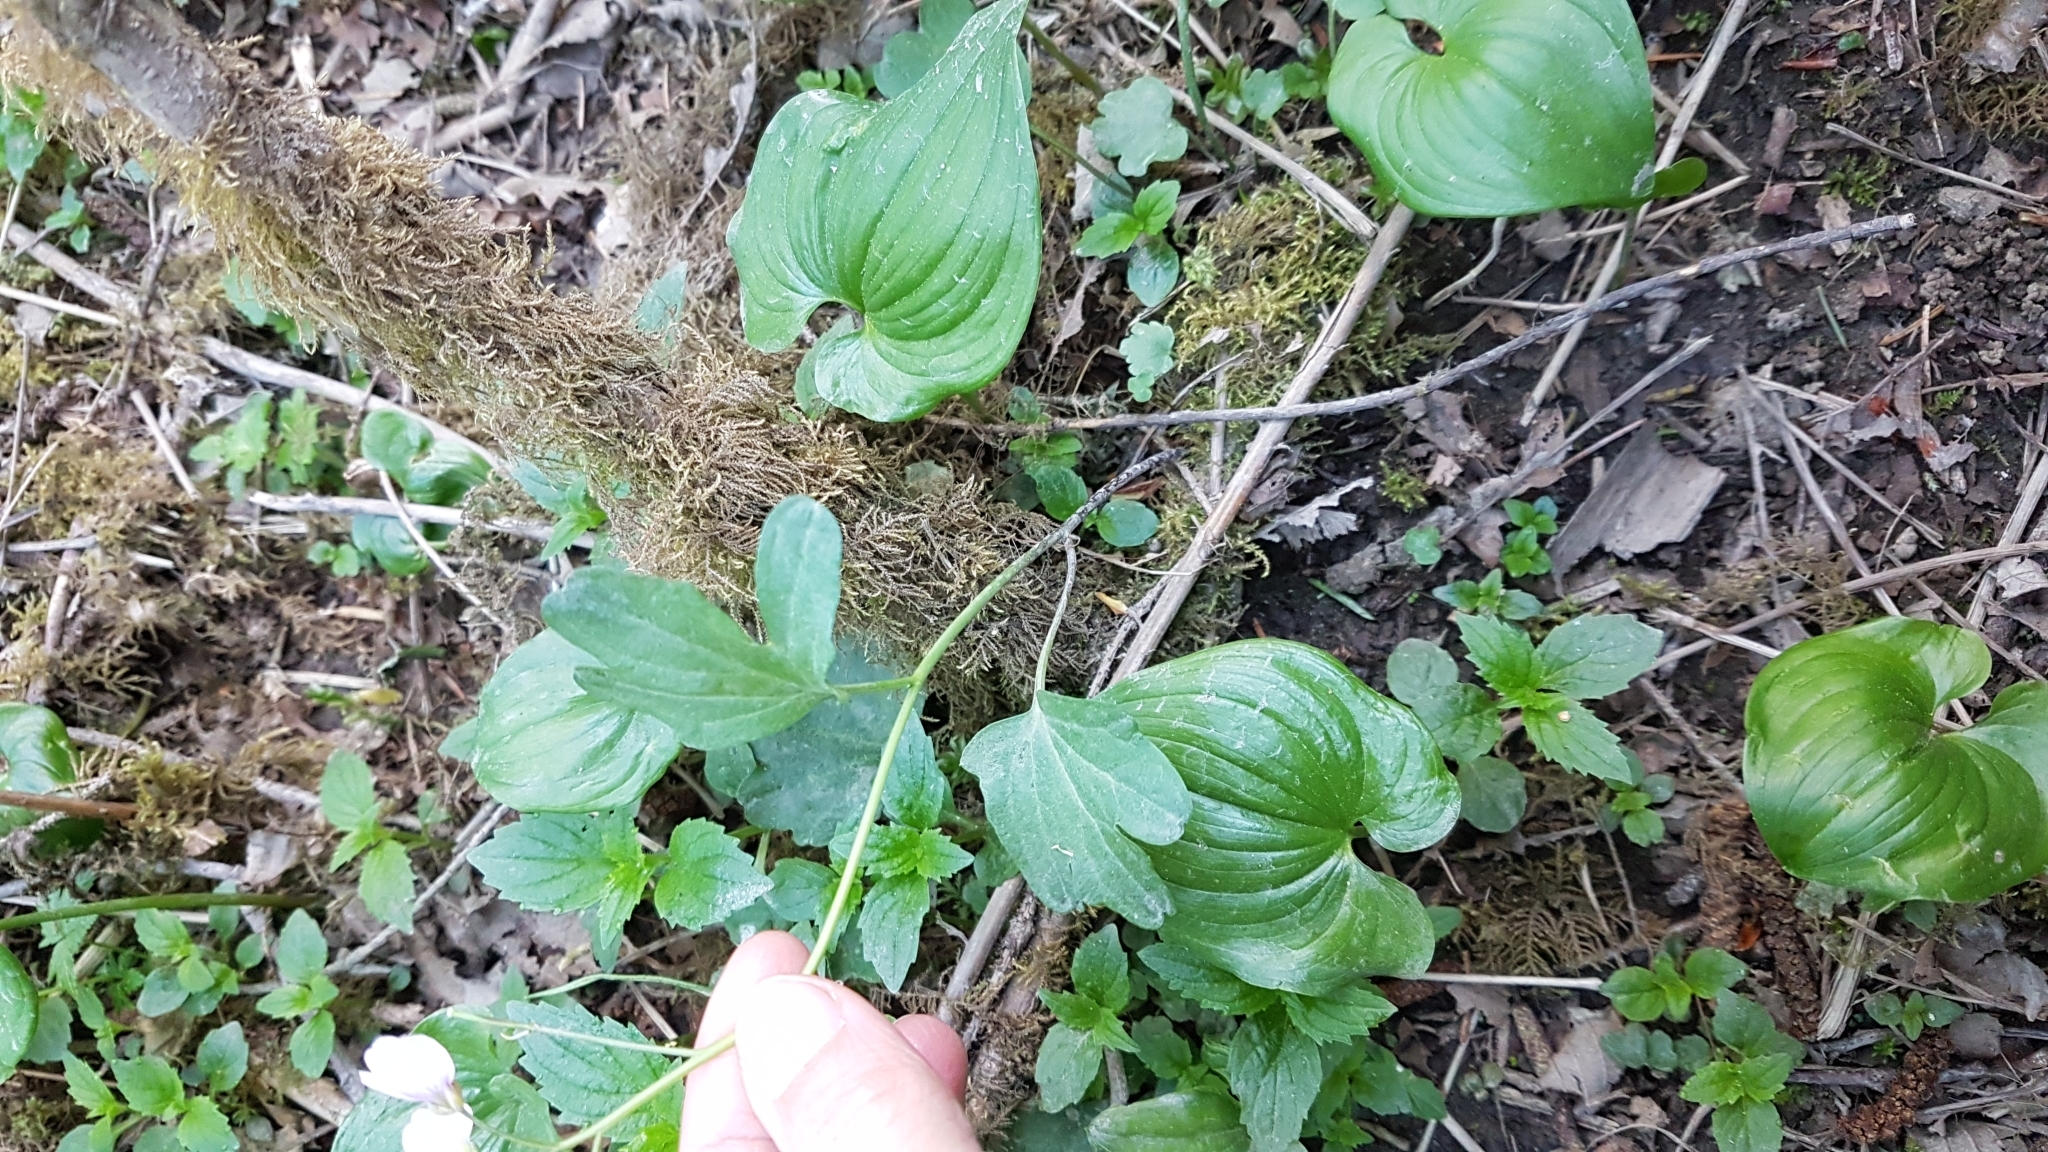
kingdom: Plantae
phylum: Tracheophyta
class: Magnoliopsida
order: Brassicales
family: Brassicaceae
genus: Cardamine
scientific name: Cardamine nuttallii
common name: Nuttall's toothwort
